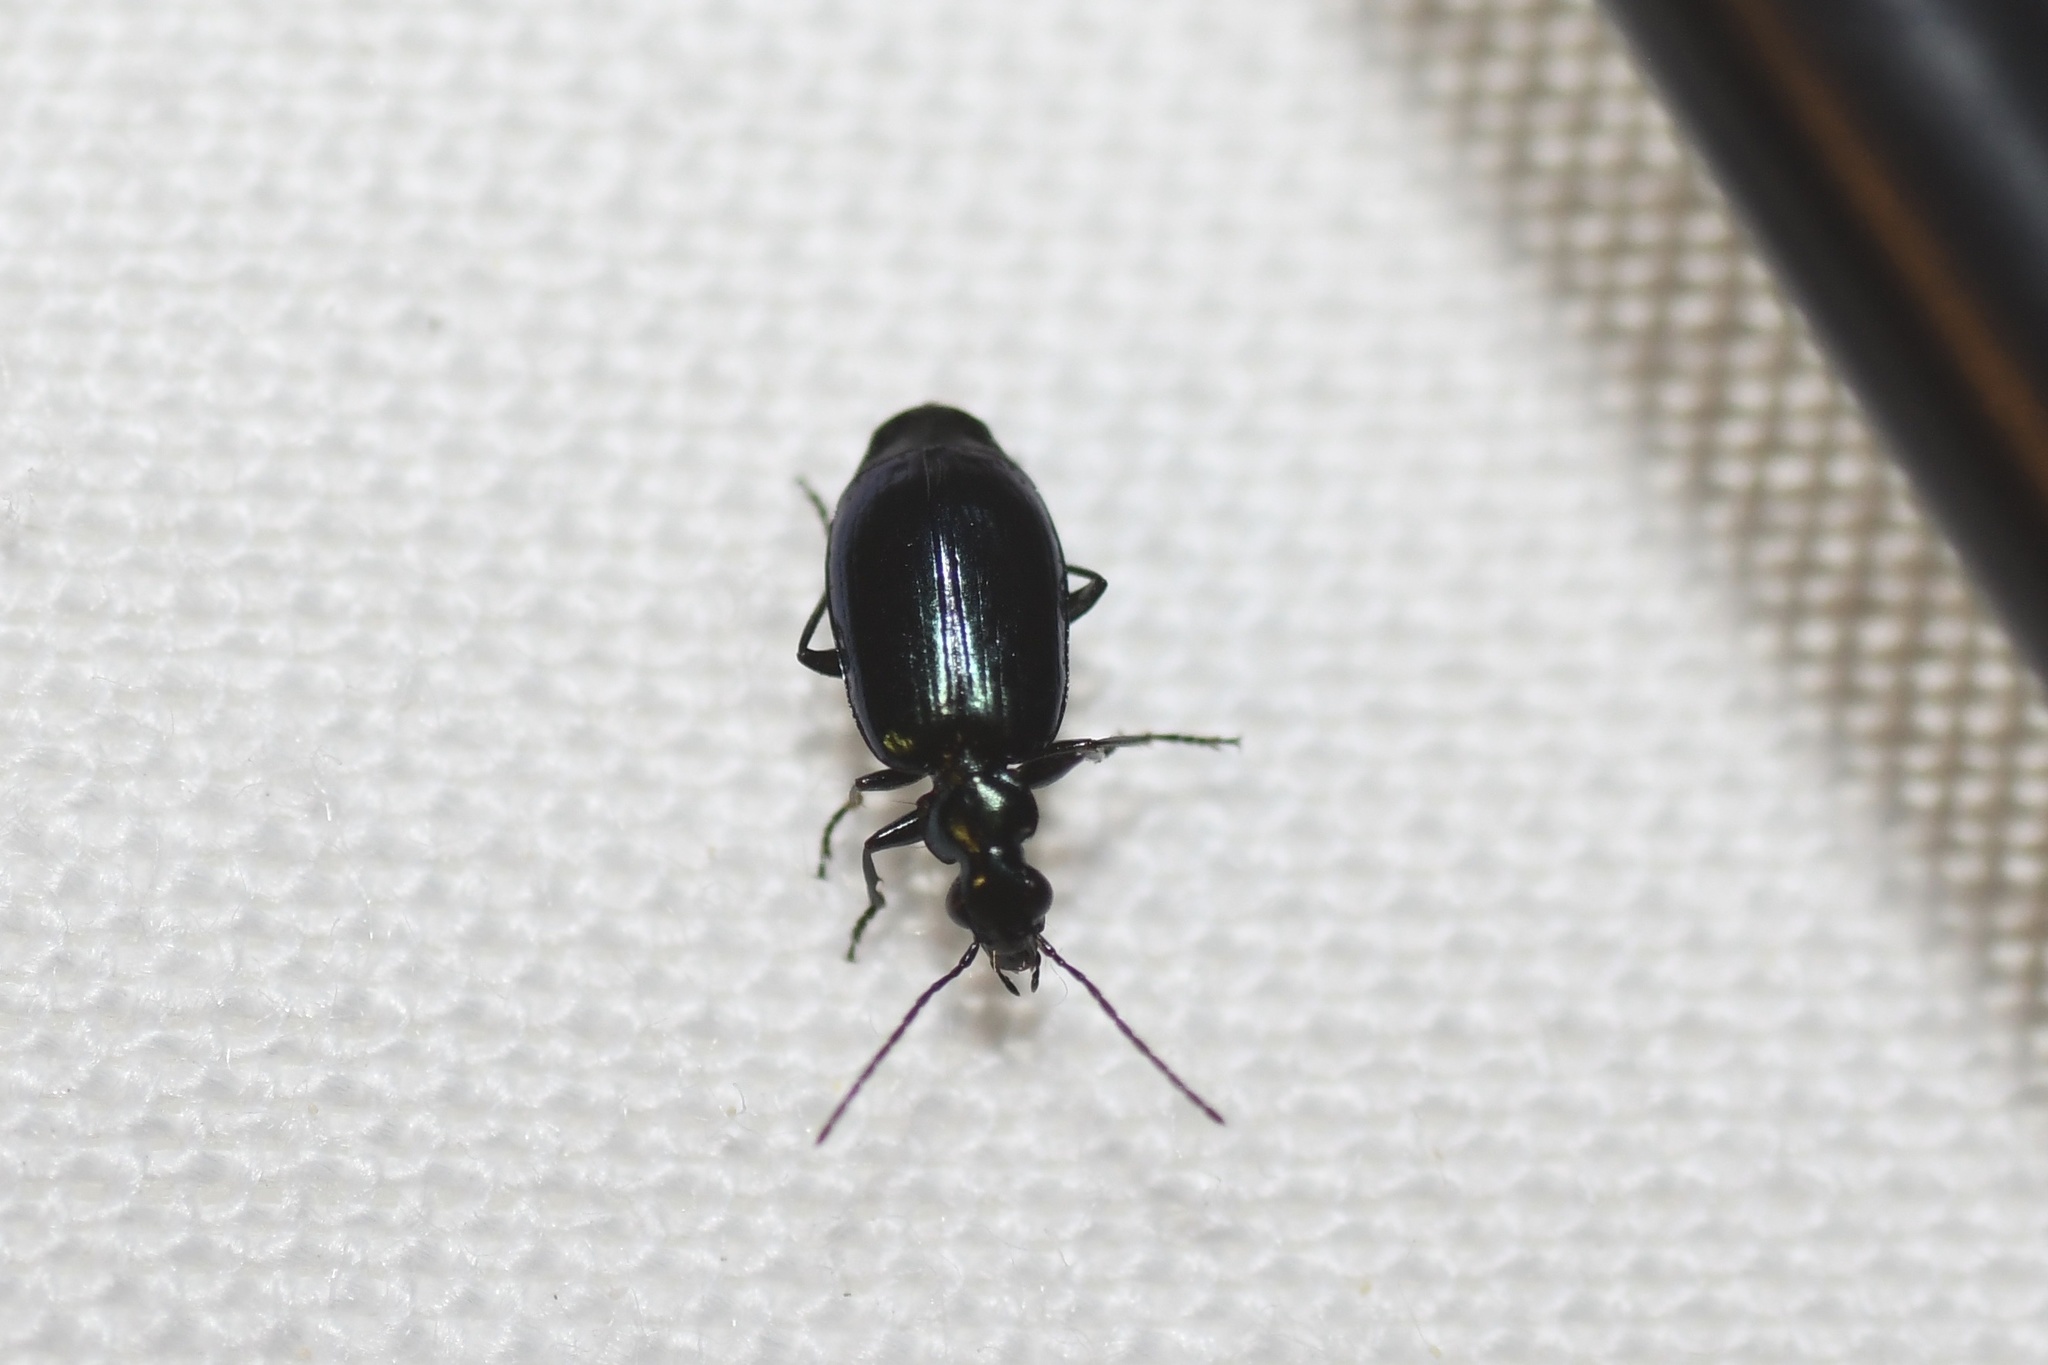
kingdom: Animalia
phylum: Arthropoda
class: Insecta
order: Coleoptera
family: Carabidae
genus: Lebia
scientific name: Lebia viridis
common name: Flower lebia beetle
